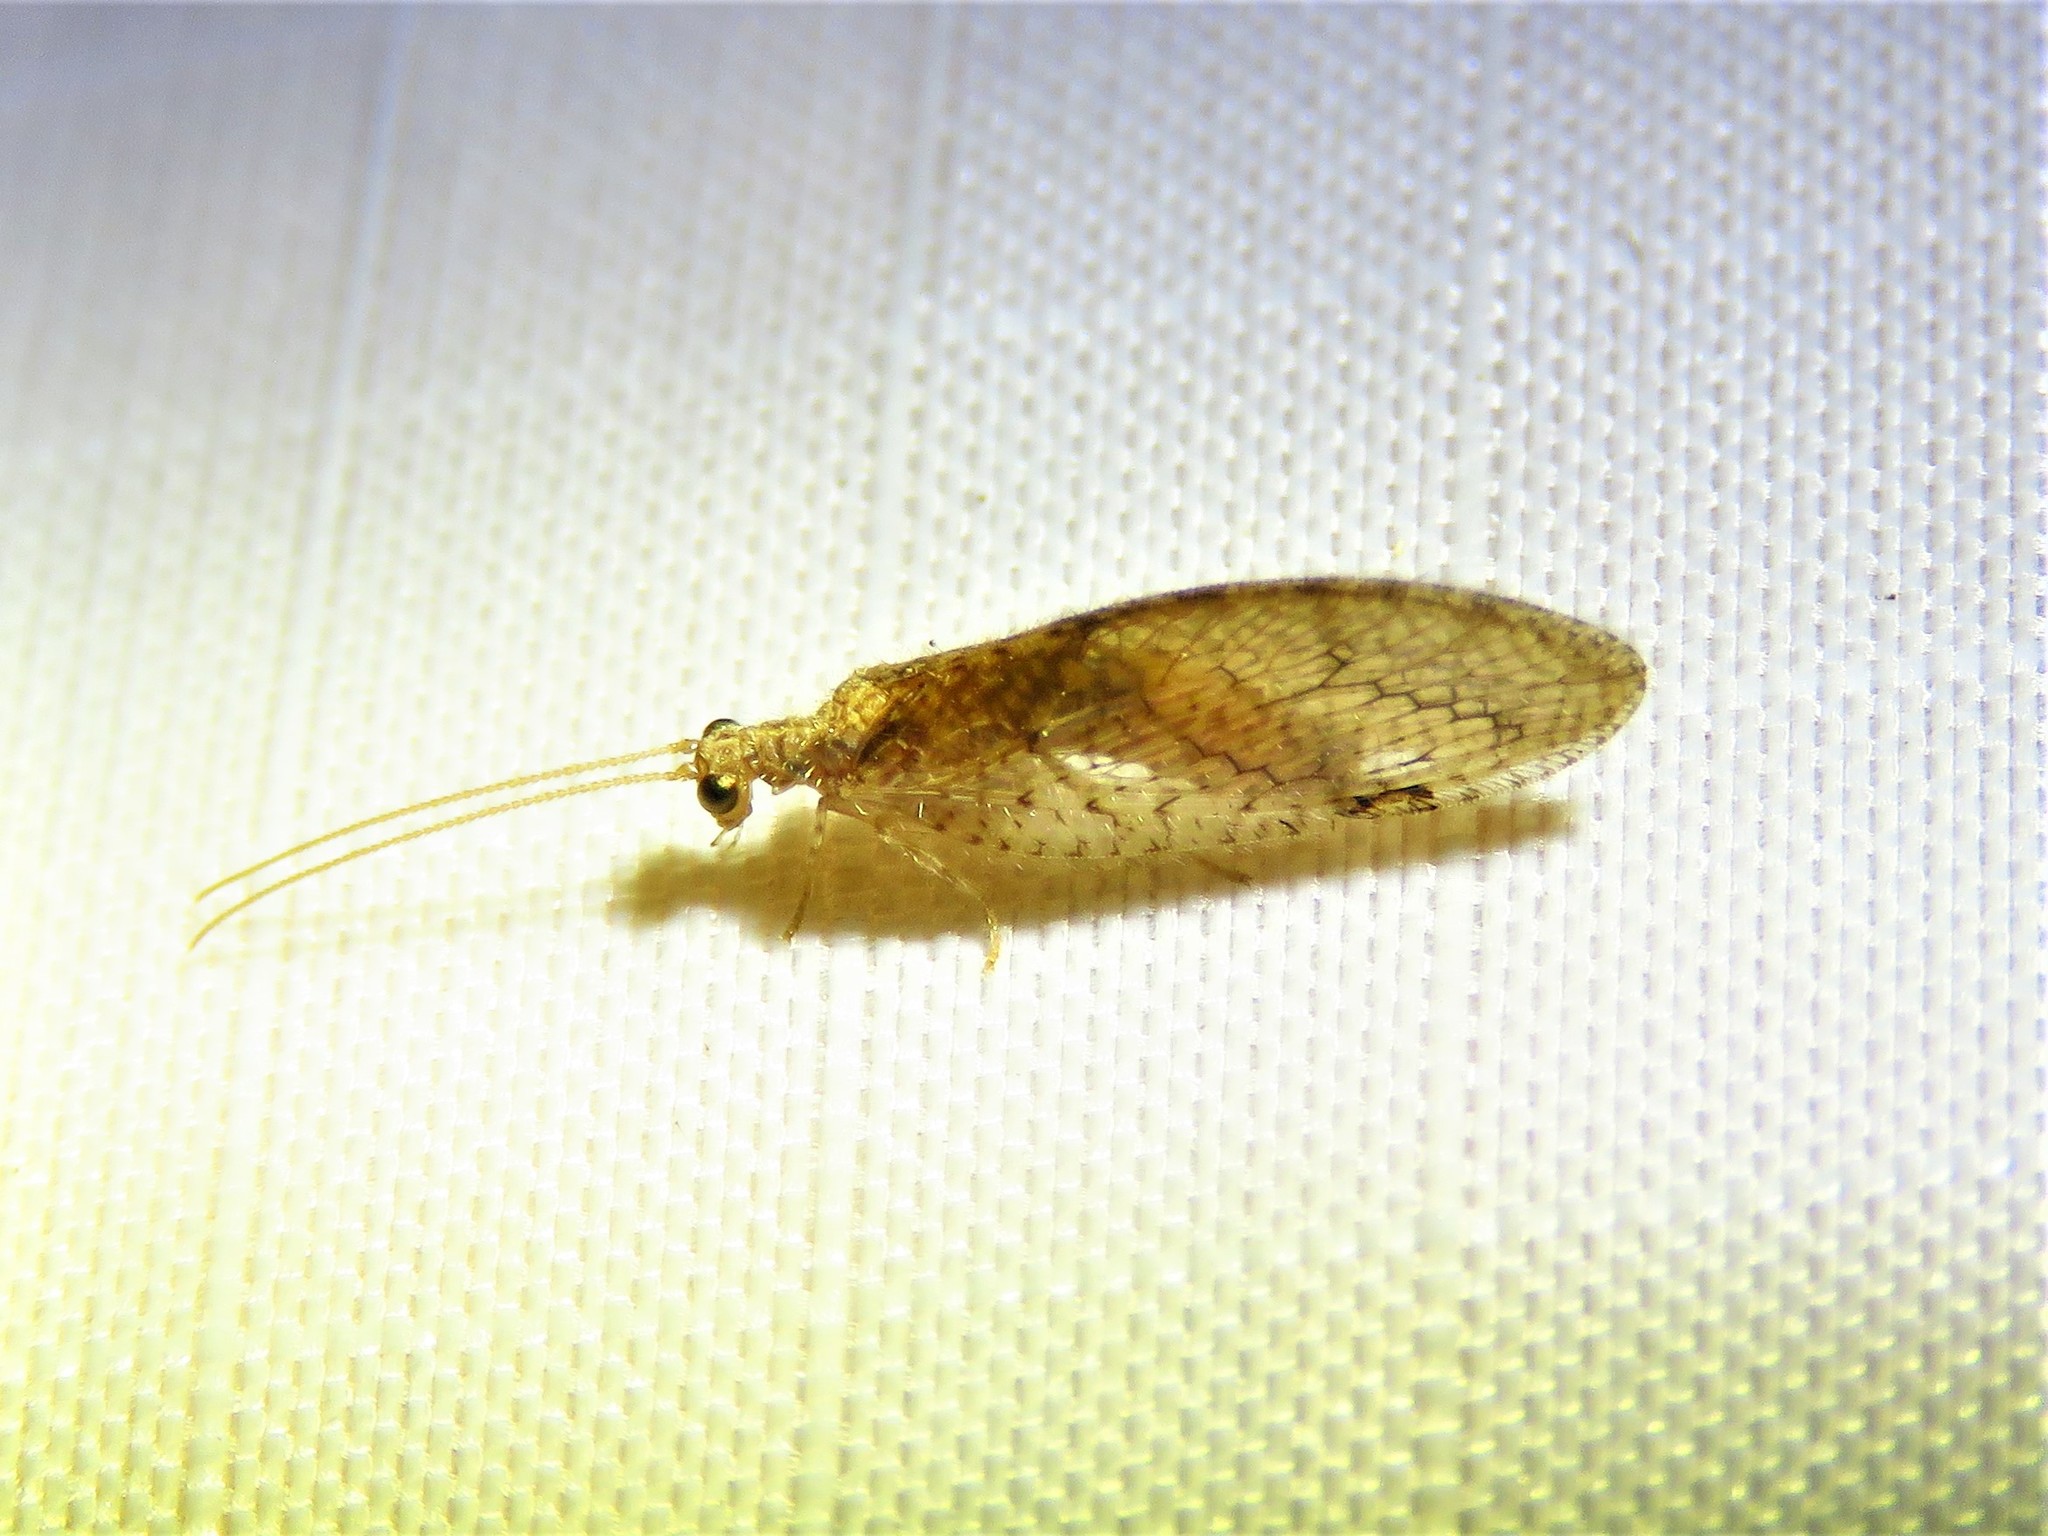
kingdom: Animalia
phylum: Arthropoda
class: Insecta
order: Neuroptera
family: Hemerobiidae
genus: Micromus
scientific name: Micromus posticus
